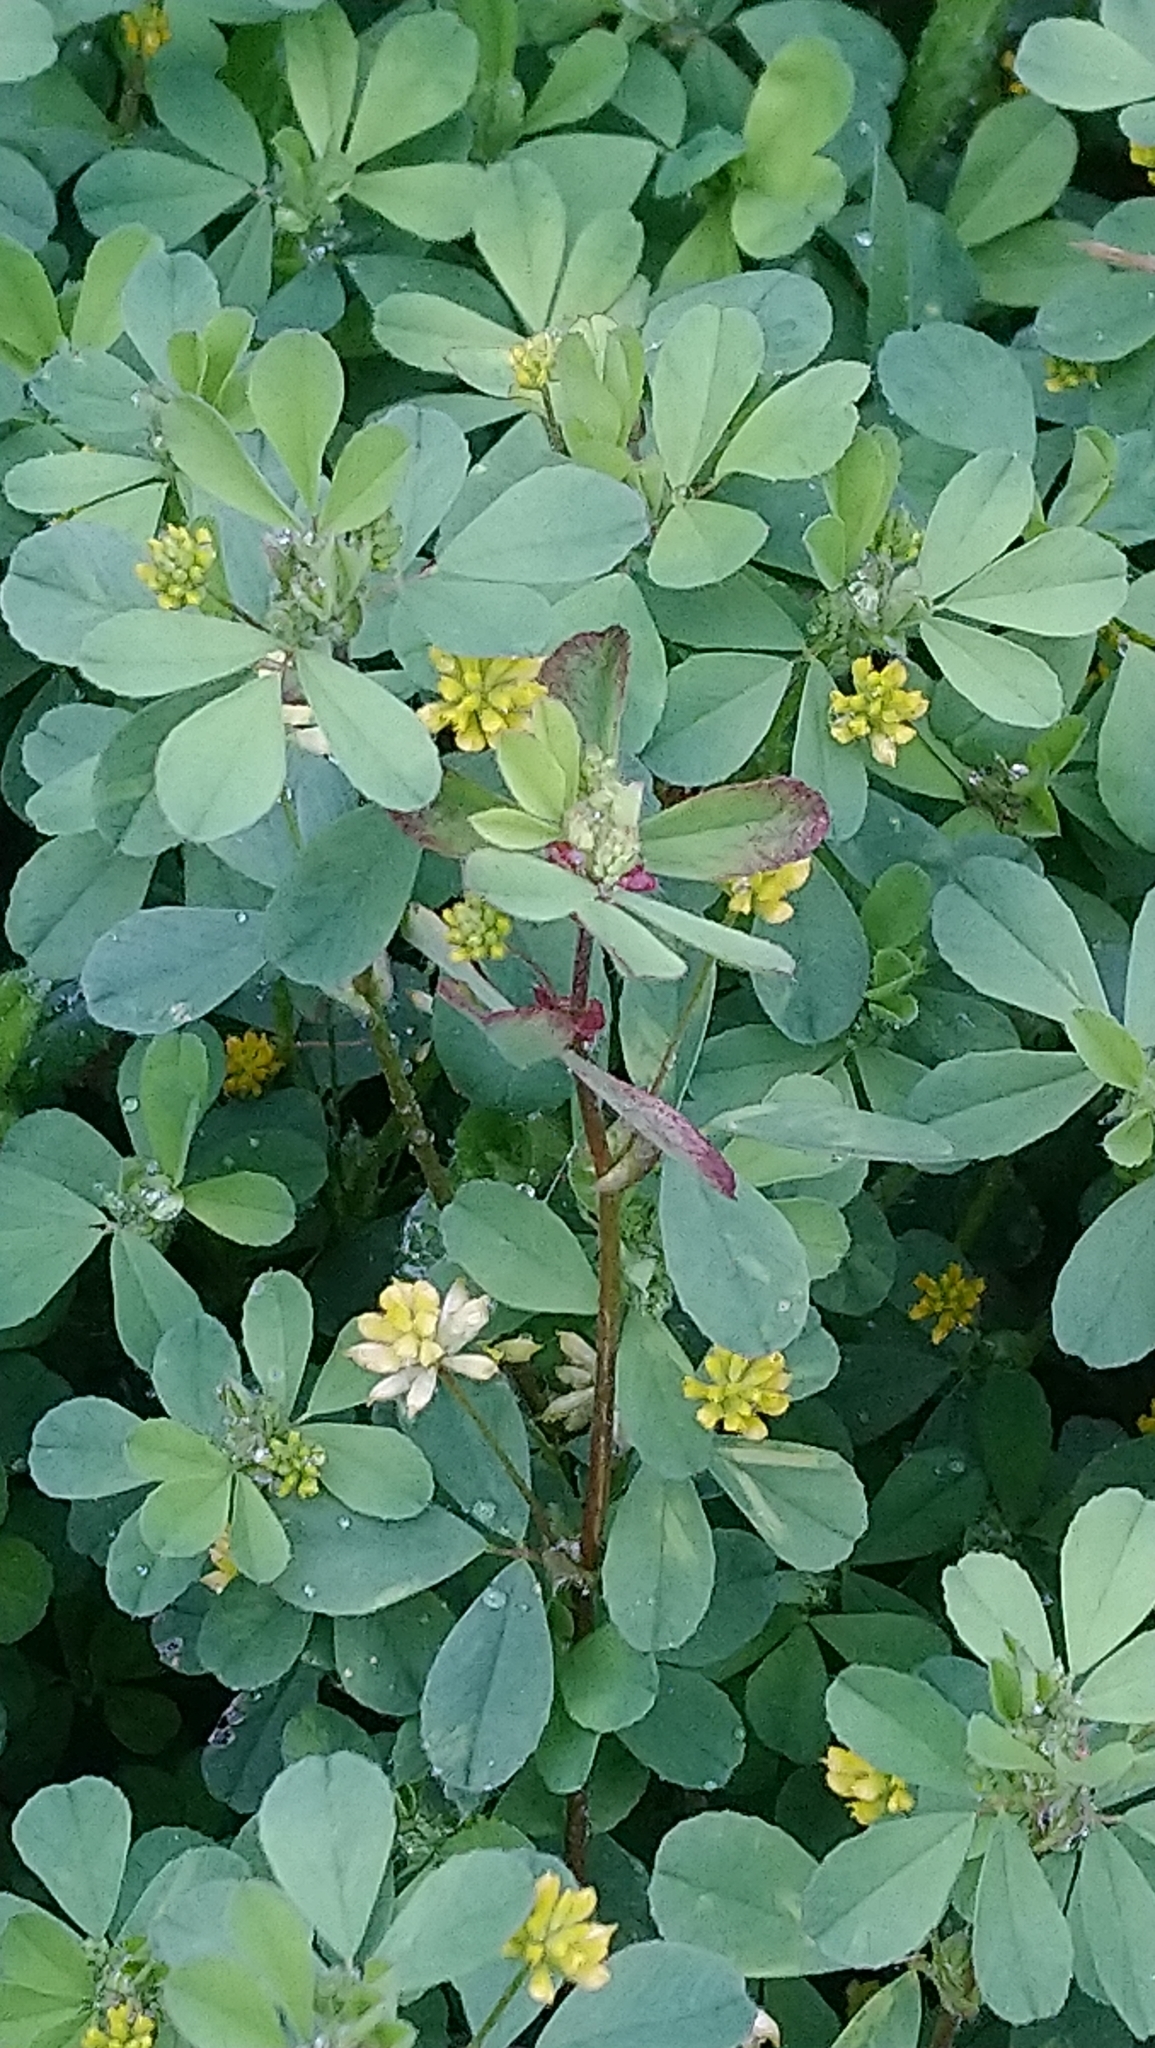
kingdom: Plantae
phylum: Tracheophyta
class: Magnoliopsida
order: Fabales
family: Fabaceae
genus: Trifolium
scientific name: Trifolium dubium
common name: Suckling clover
